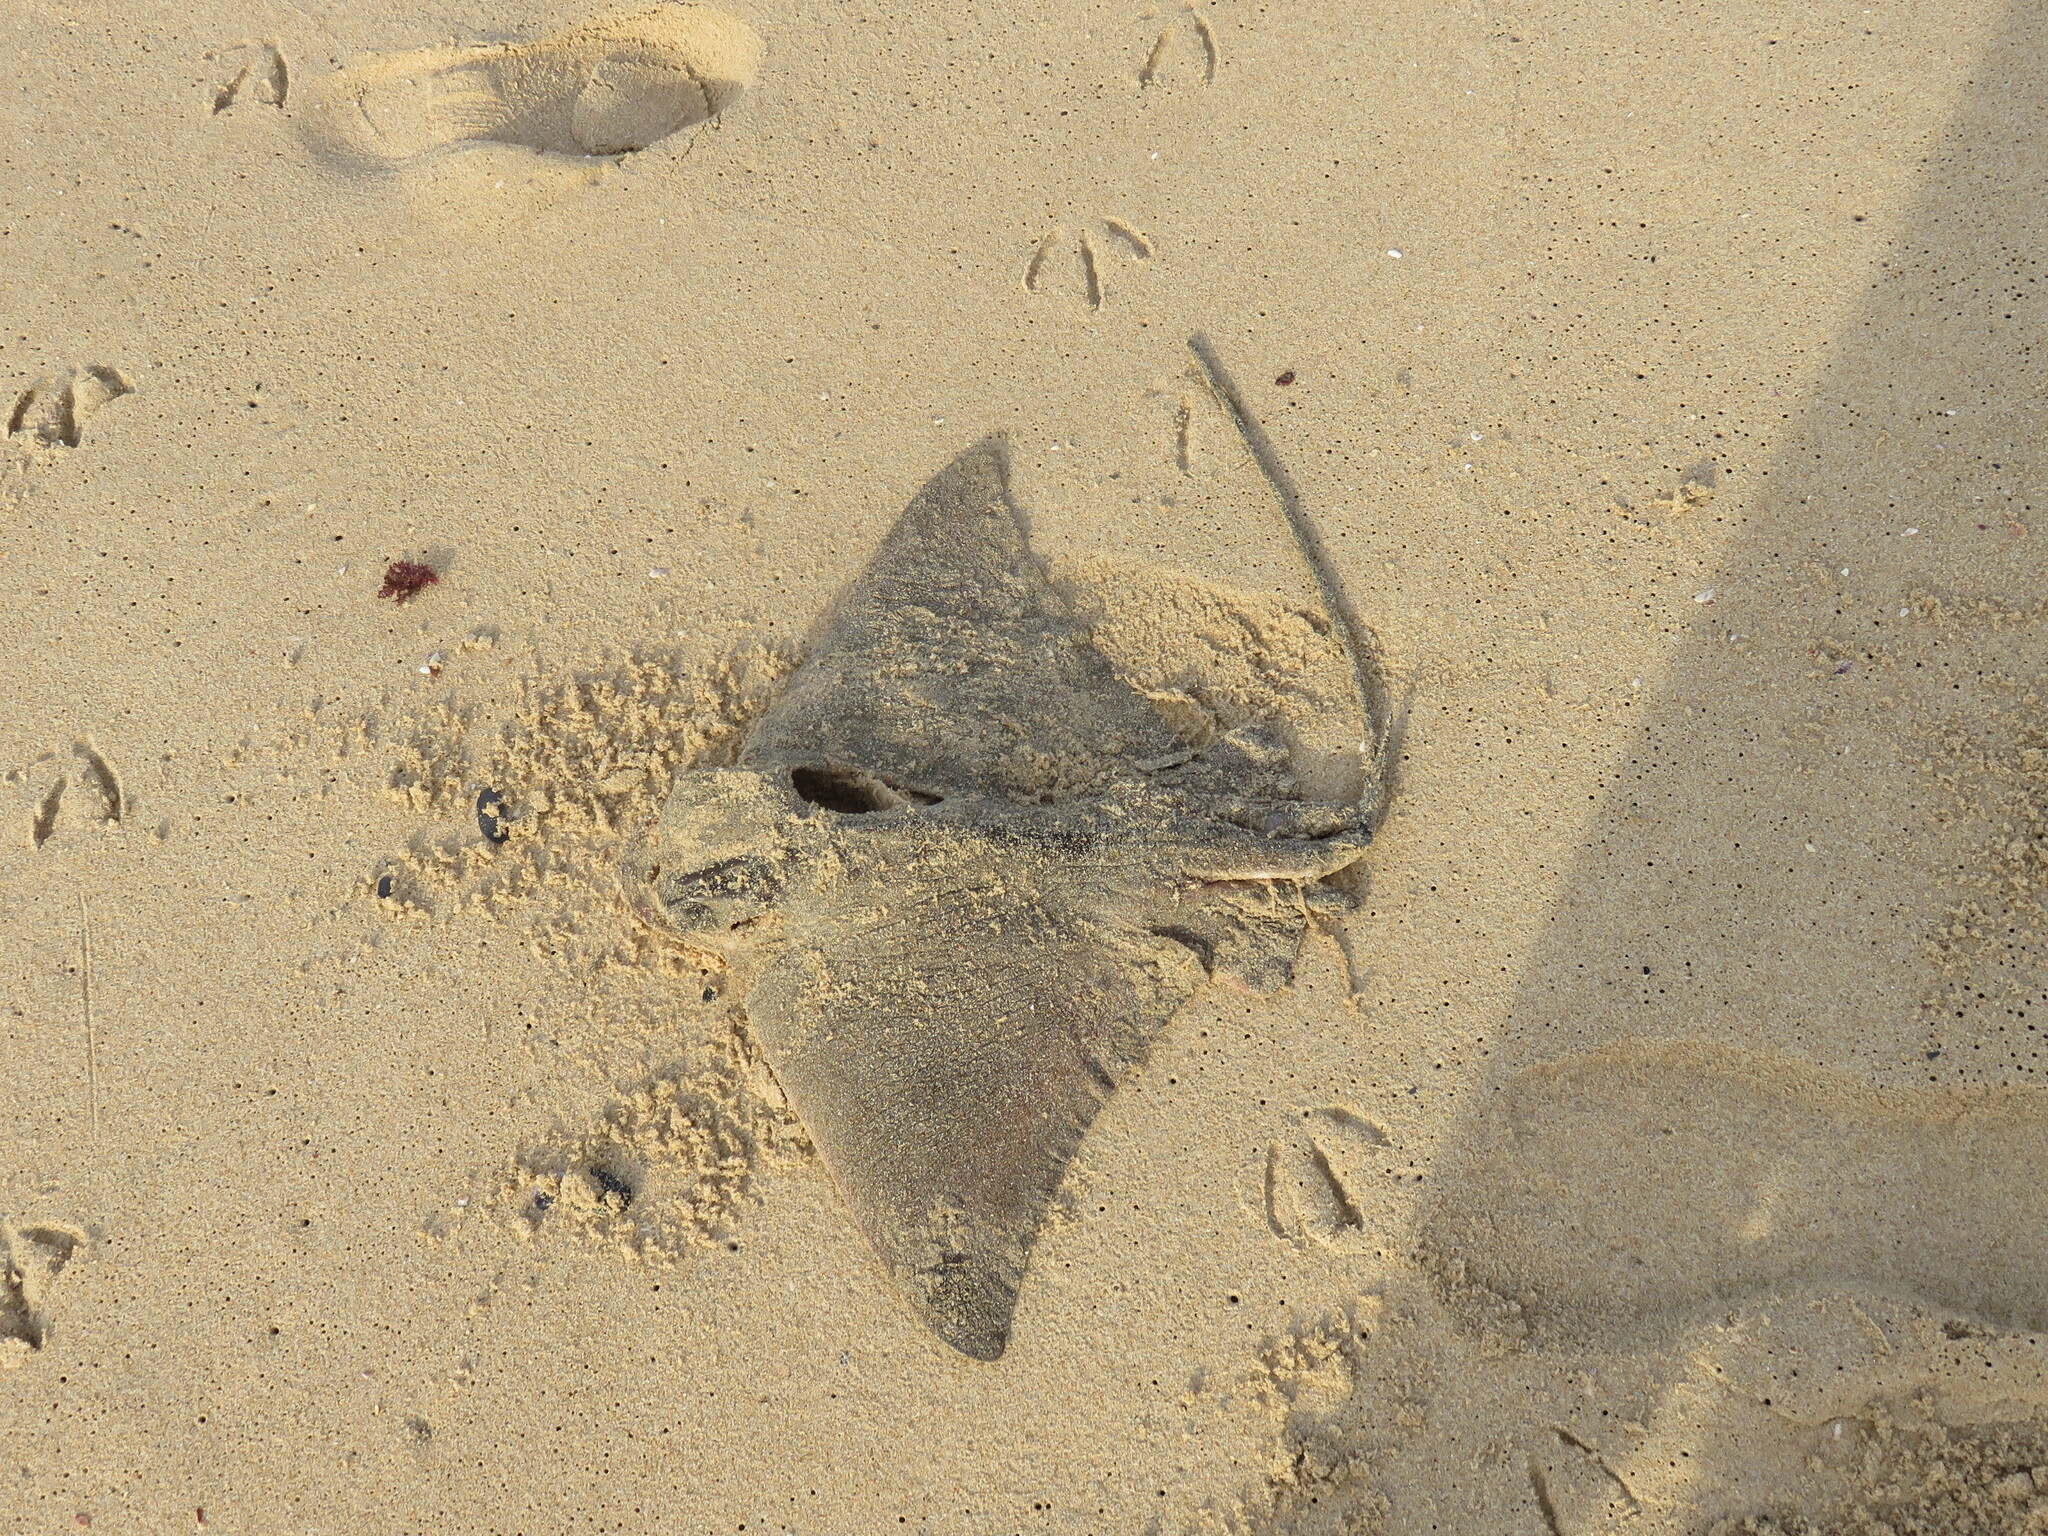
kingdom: Animalia
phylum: Chordata
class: Elasmobranchii
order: Myliobatiformes
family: Myliobatidae
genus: Myliobatis
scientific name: Myliobatis aquila
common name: Eagle ray
